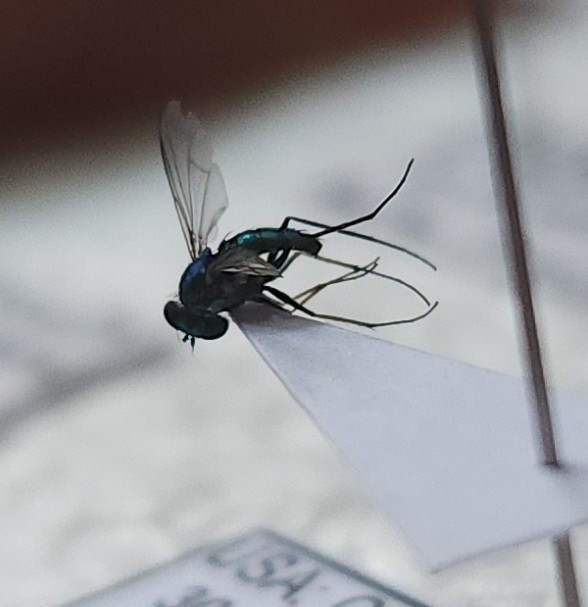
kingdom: Animalia
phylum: Arthropoda
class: Insecta
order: Diptera
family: Dolichopodidae
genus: Condylostylus
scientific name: Condylostylus longicornis
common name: Long-legged fly
